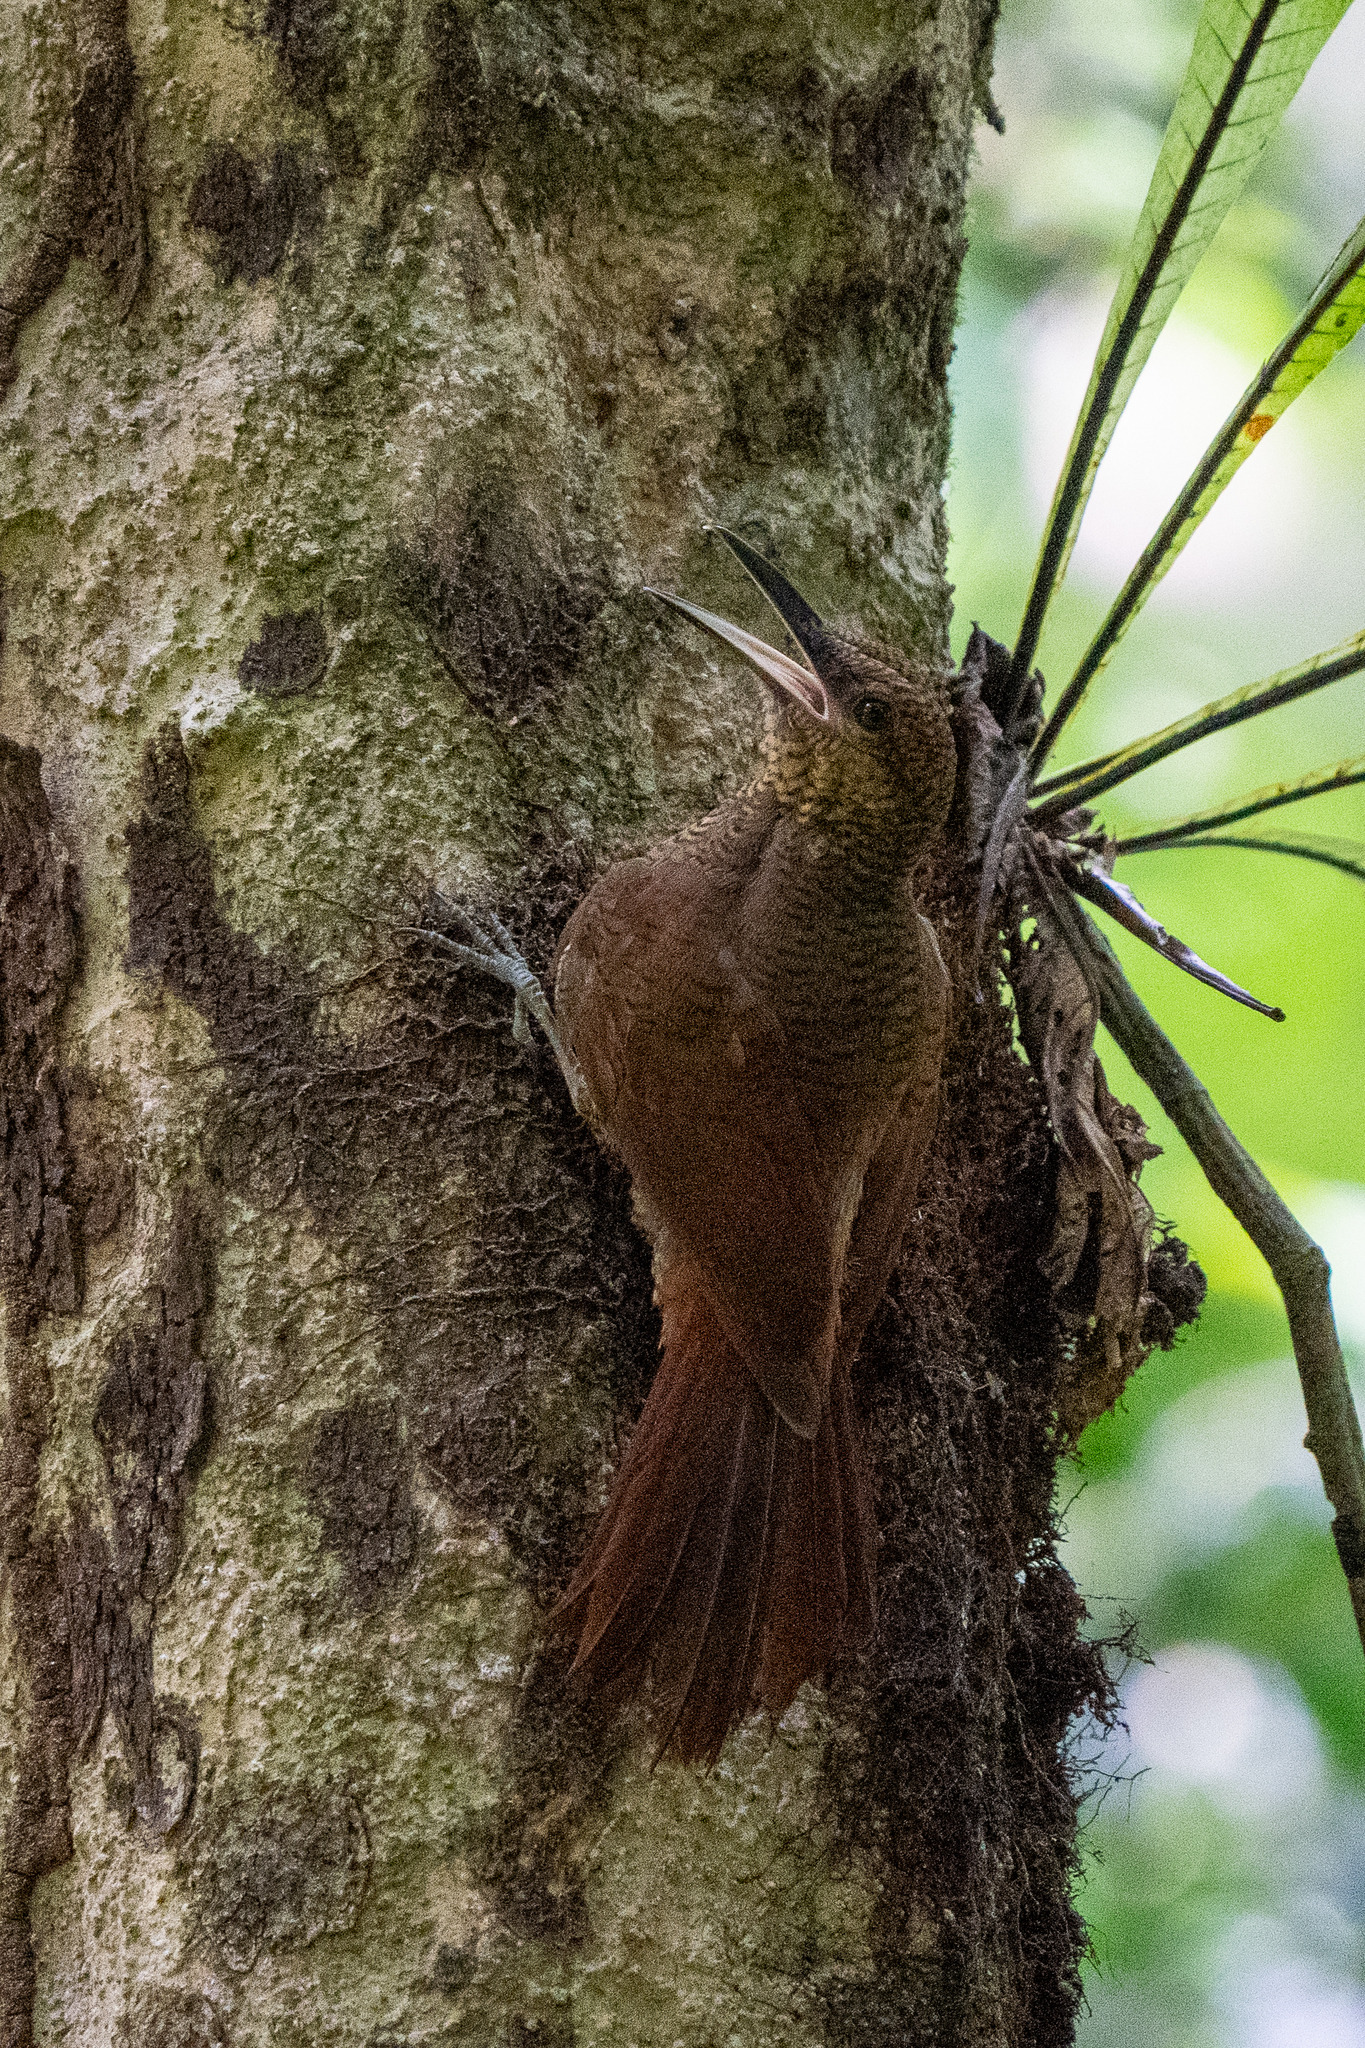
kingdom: Animalia
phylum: Chordata
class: Aves
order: Passeriformes
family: Furnariidae
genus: Dendrocolaptes
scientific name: Dendrocolaptes sanctithomae
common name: Northern barred-woodcreeper
